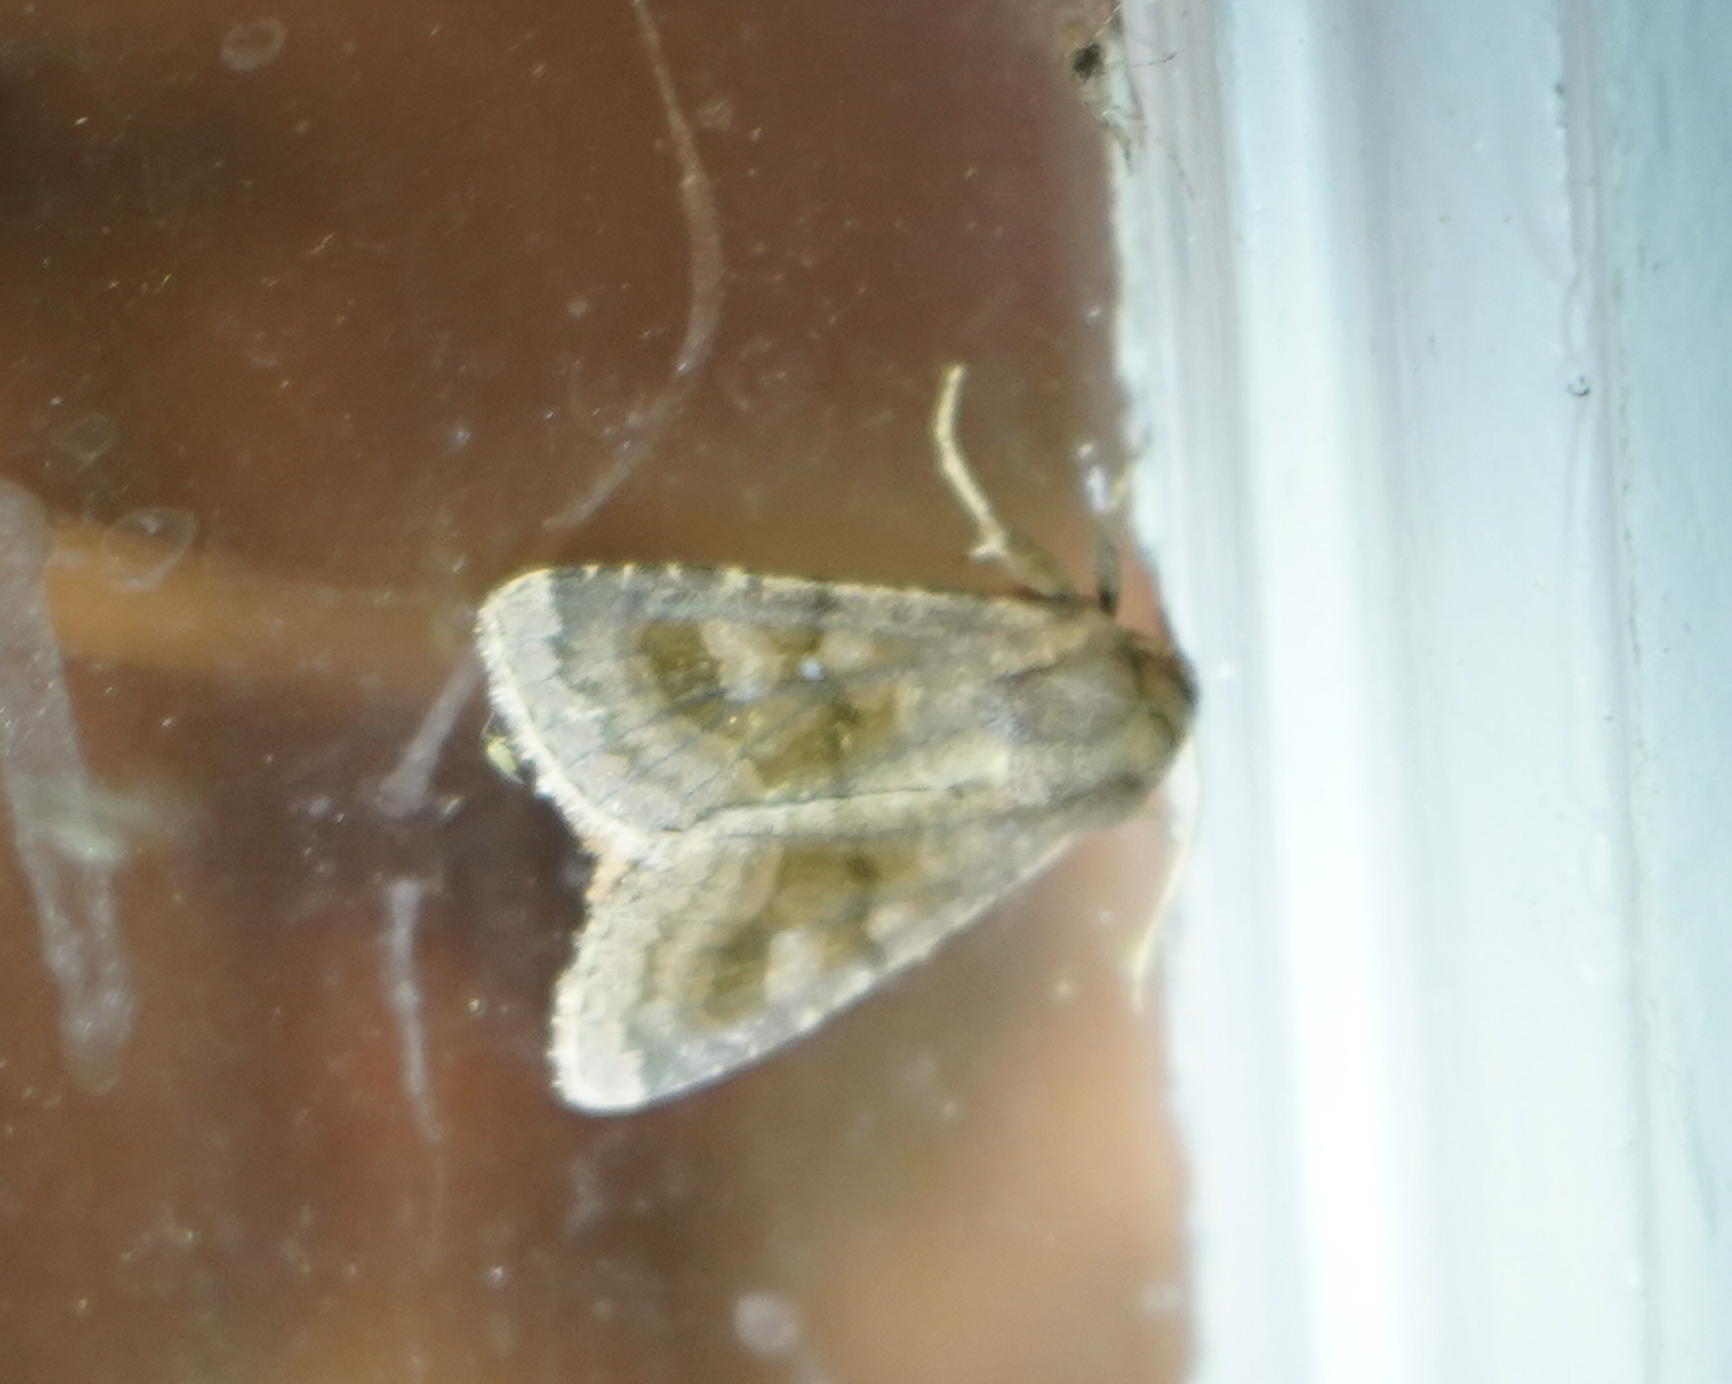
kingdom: Animalia
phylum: Arthropoda
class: Insecta
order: Lepidoptera
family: Noctuidae
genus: Nephelodes
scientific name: Nephelodes minians
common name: Bronzed cutworm
